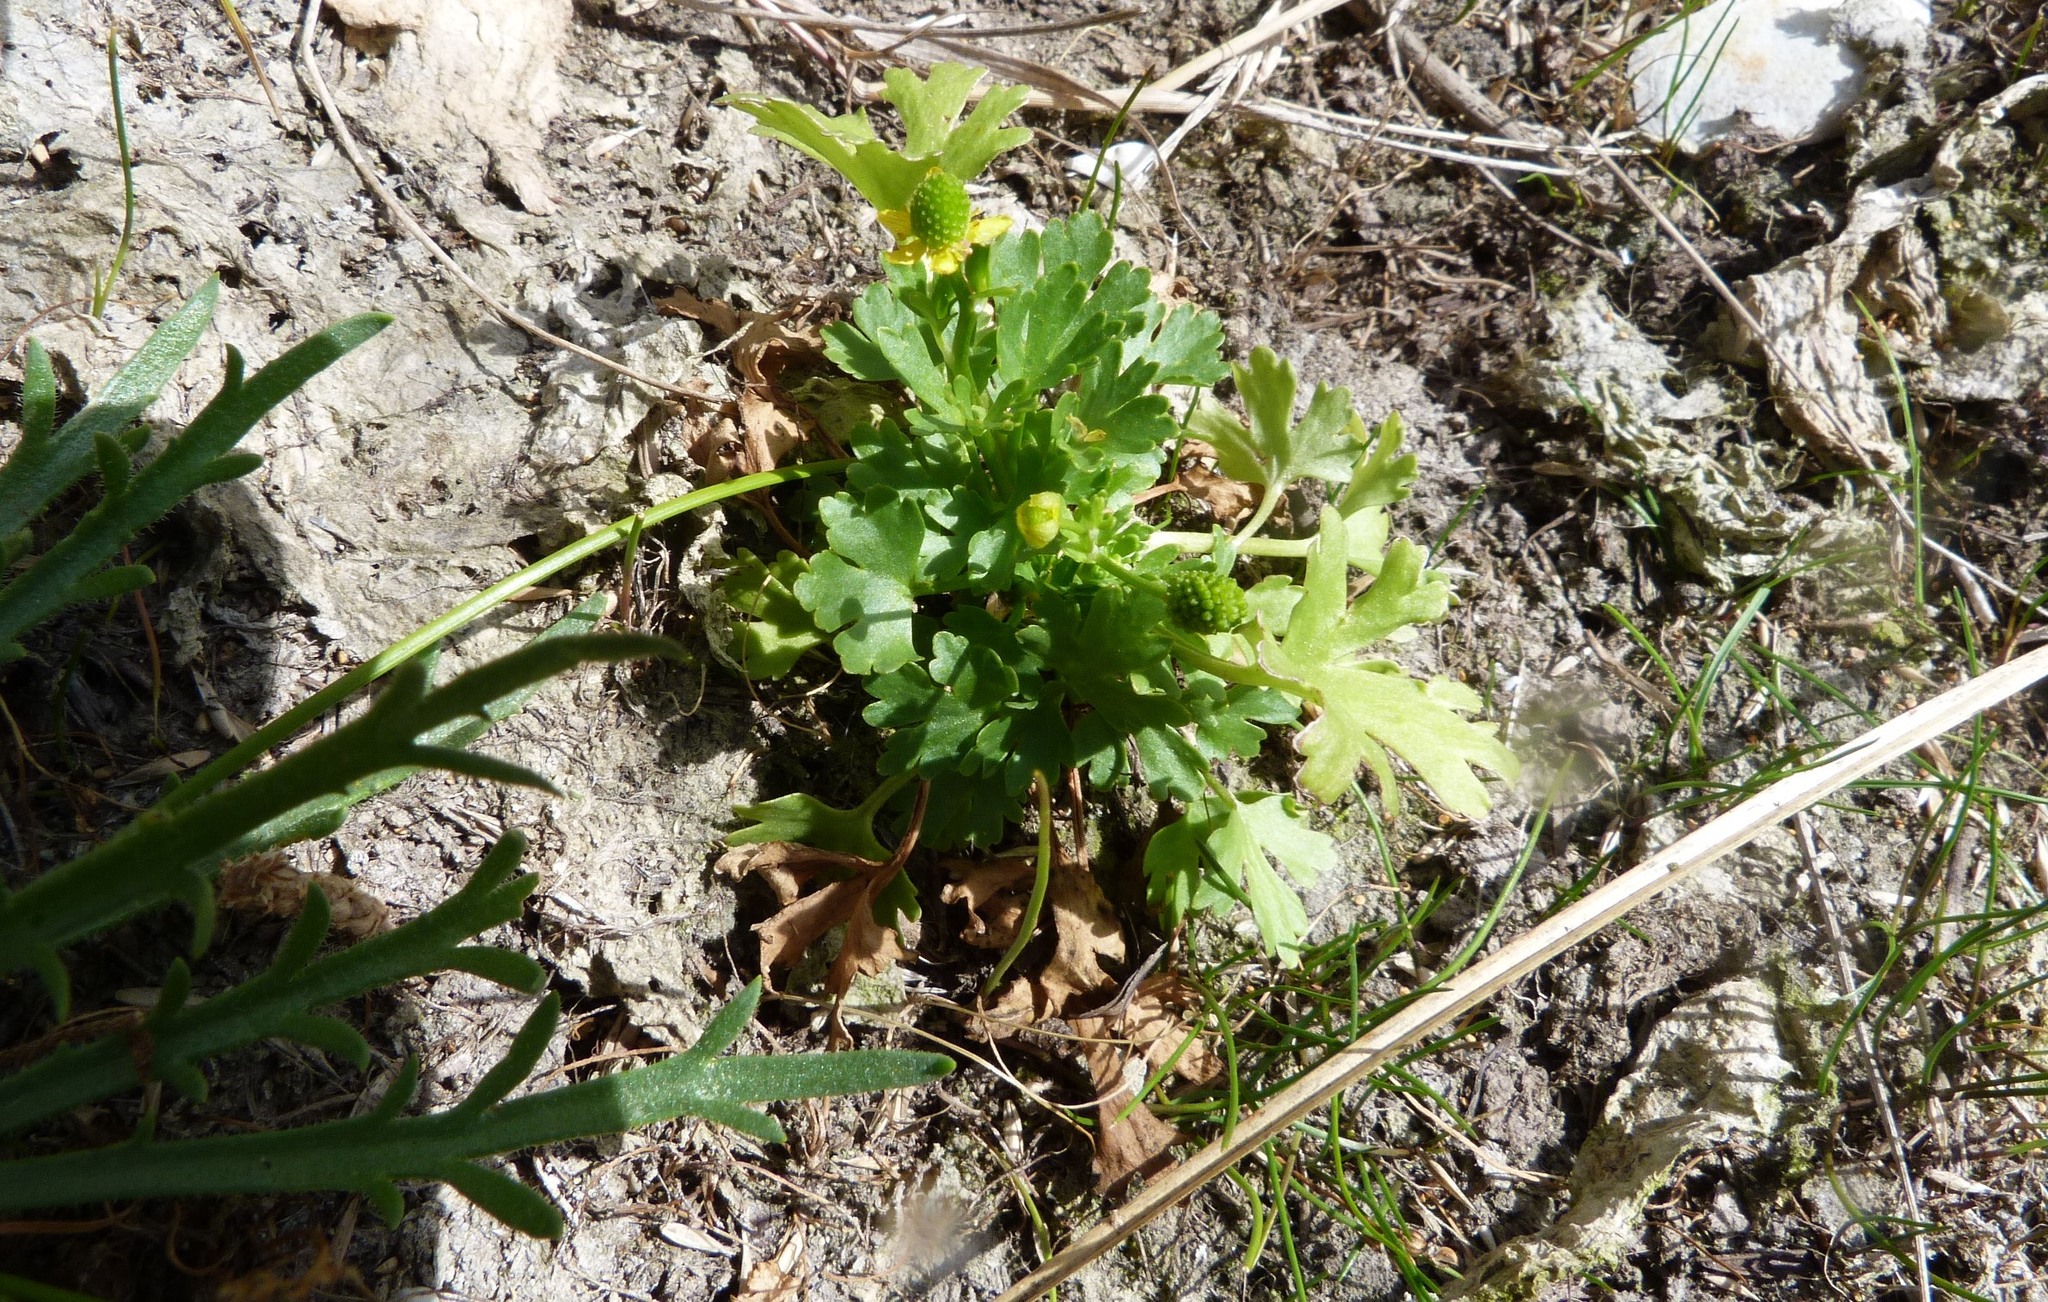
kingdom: Plantae
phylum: Tracheophyta
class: Magnoliopsida
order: Ranunculales
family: Ranunculaceae
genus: Ranunculus
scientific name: Ranunculus sceleratus
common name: Celery-leaved buttercup
